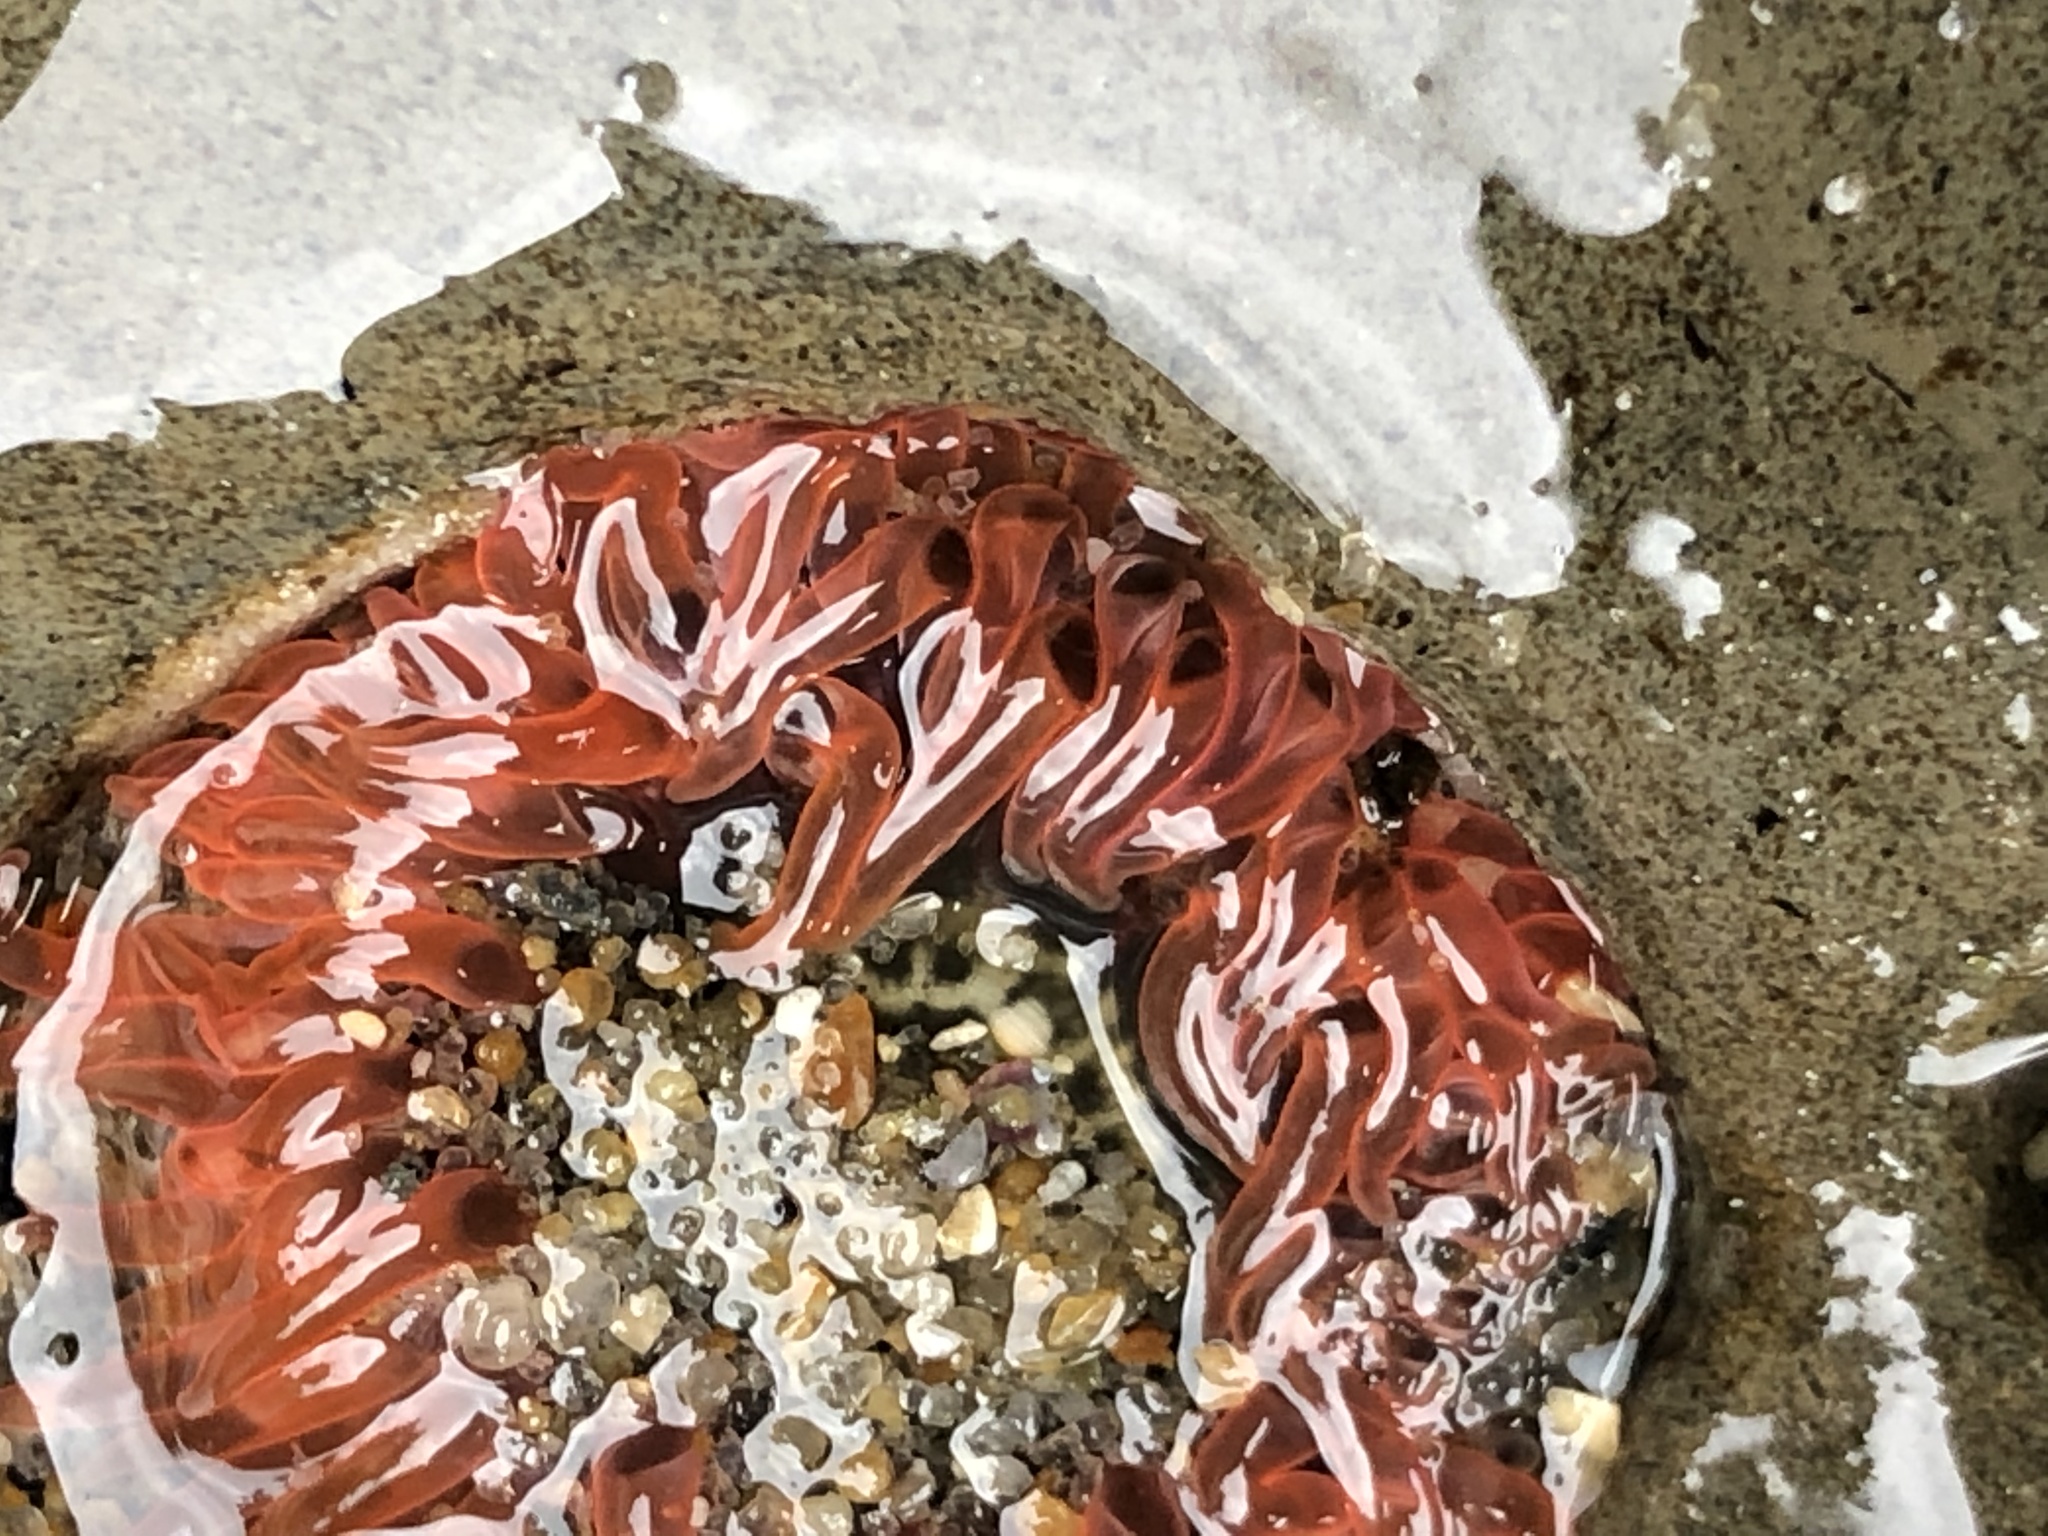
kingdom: Animalia
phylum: Cnidaria
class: Anthozoa
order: Actiniaria
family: Actiniidae
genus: Anthopleura
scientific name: Anthopleura artemisia
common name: Buried sea anemone
